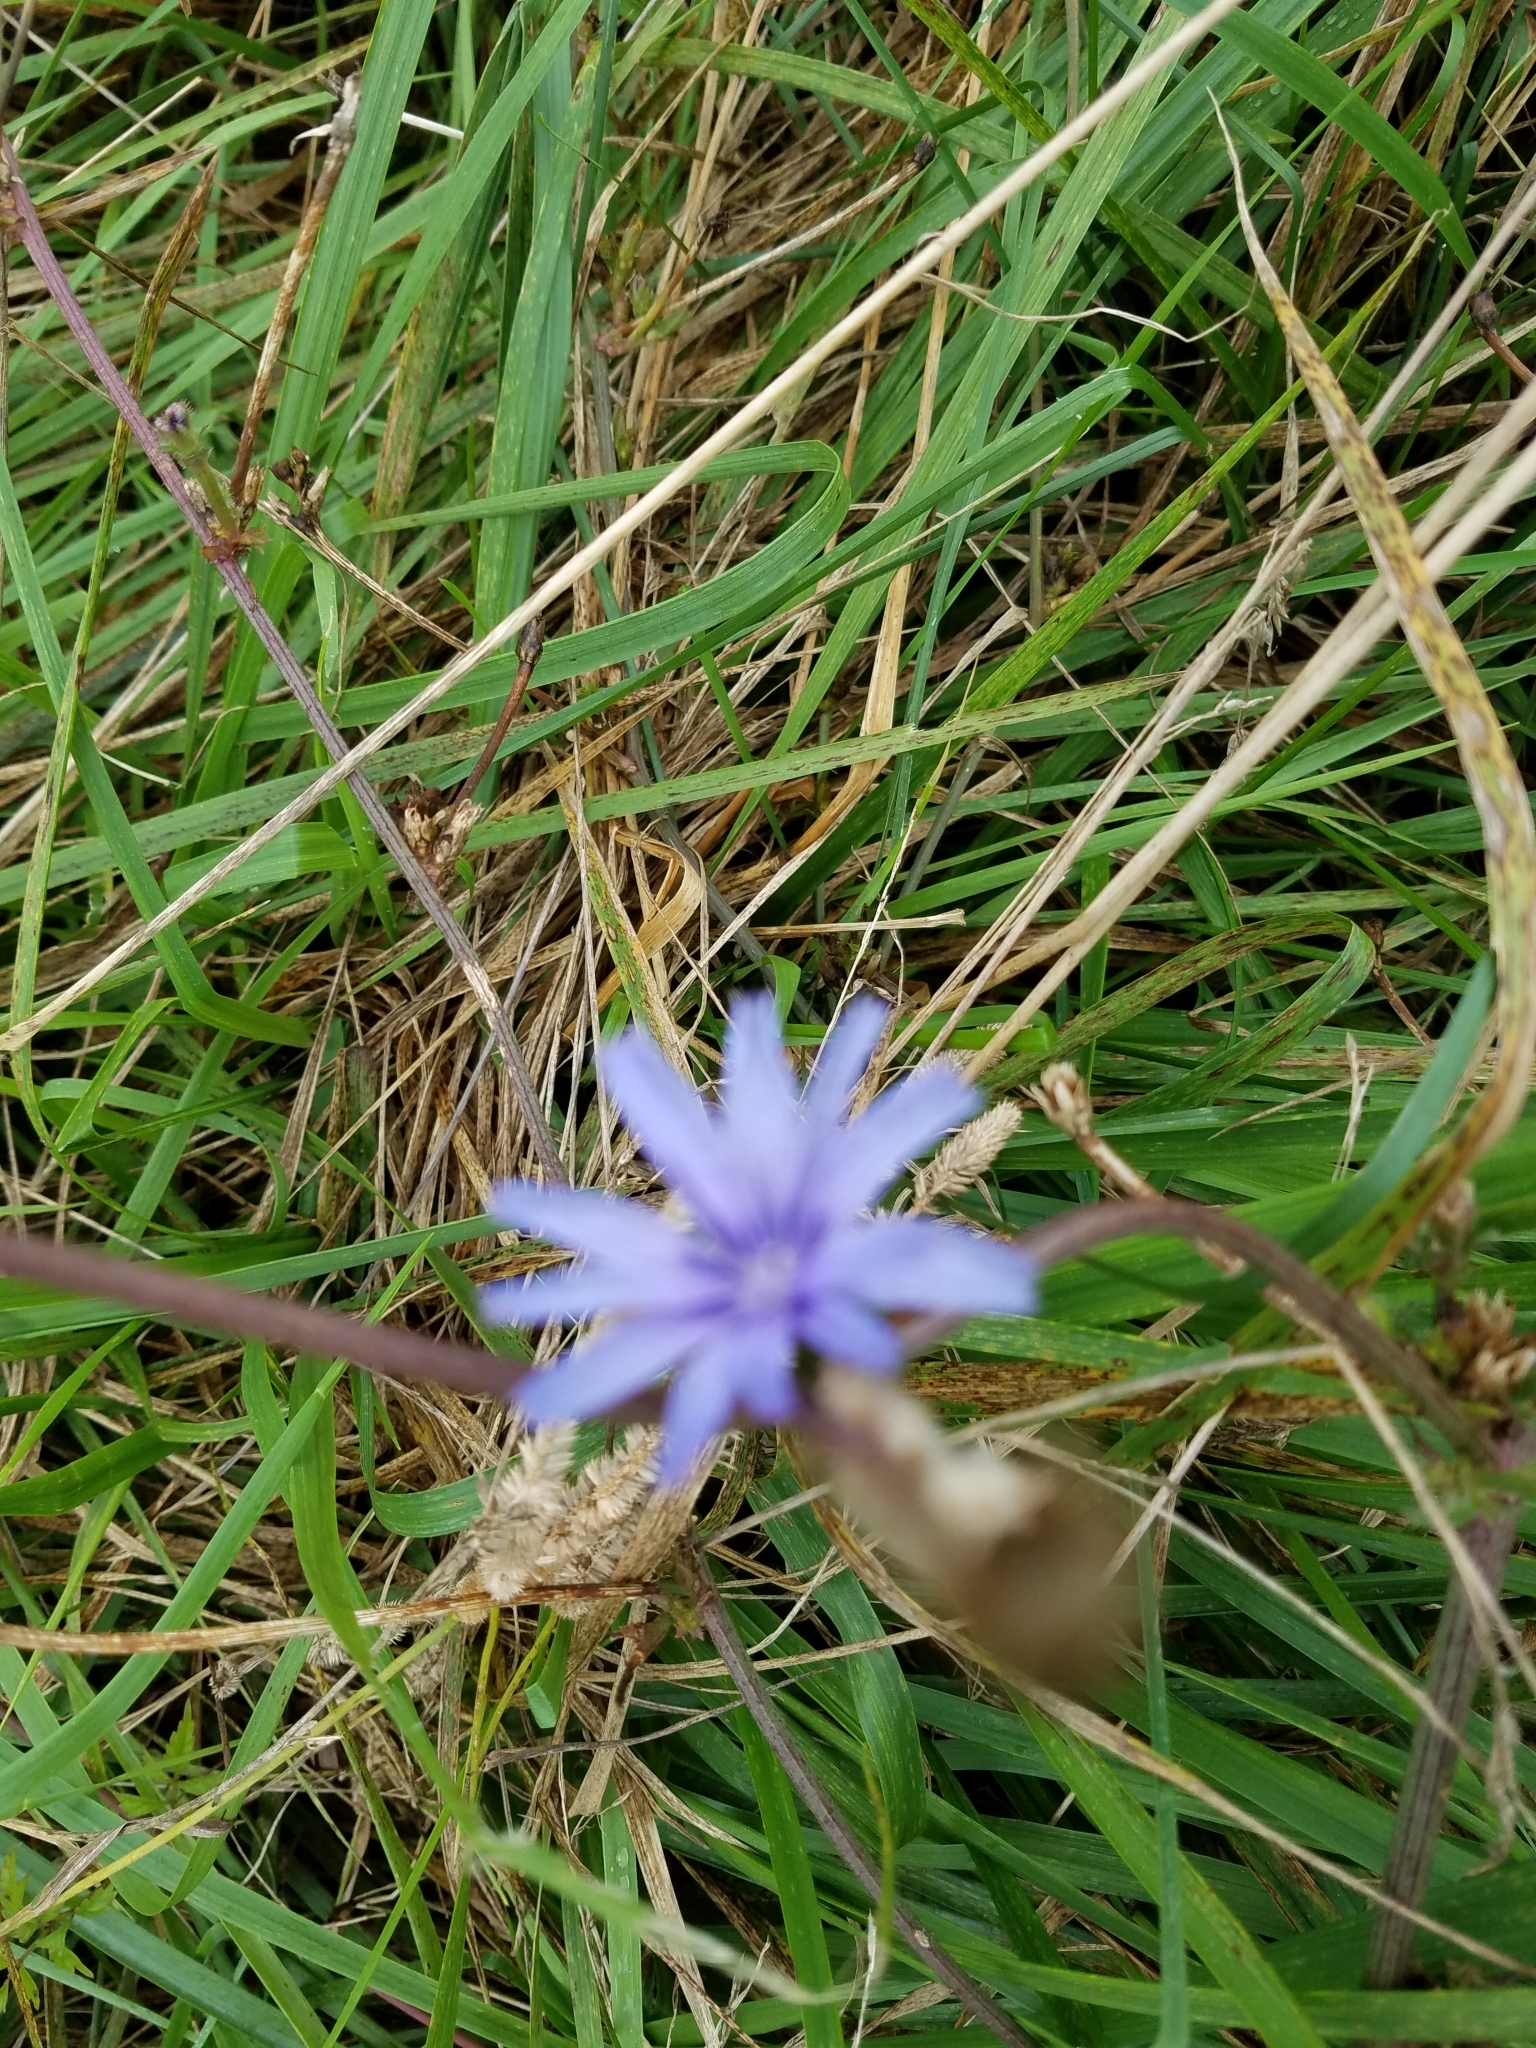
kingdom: Plantae
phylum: Tracheophyta
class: Magnoliopsida
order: Asterales
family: Asteraceae
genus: Cichorium
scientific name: Cichorium intybus
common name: Chicory
